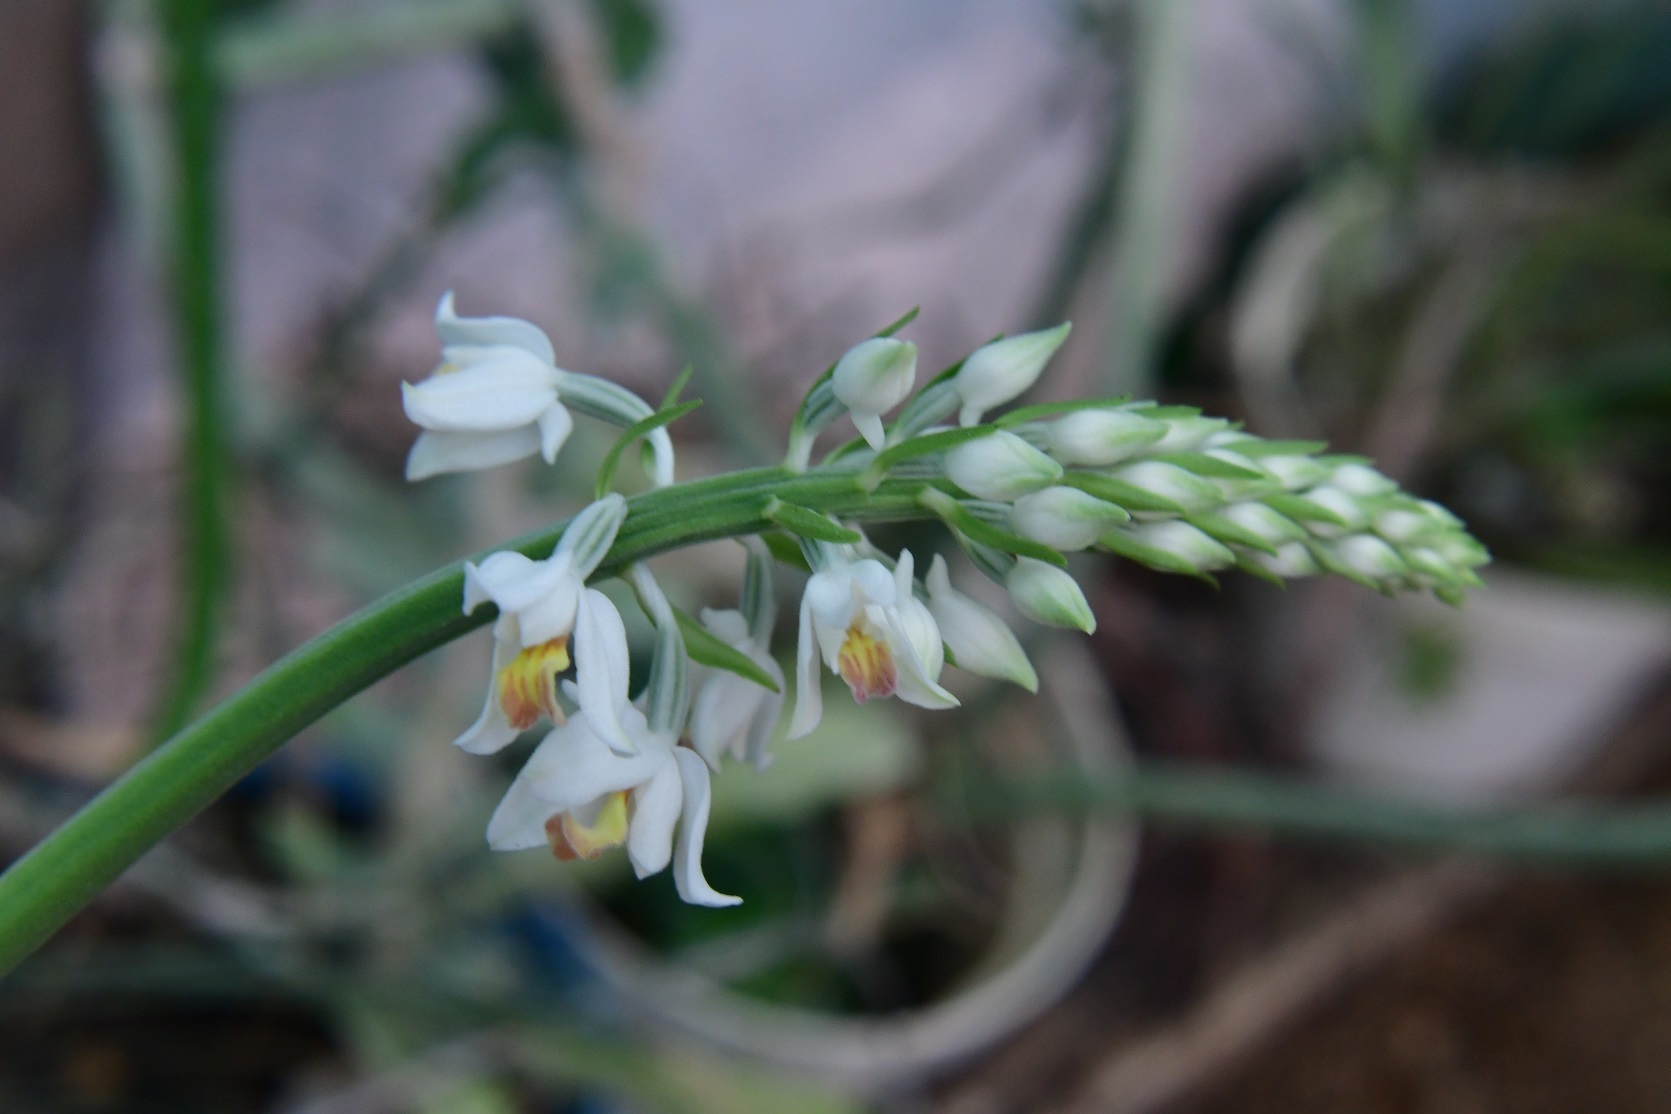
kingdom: Plantae
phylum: Tracheophyta
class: Liliopsida
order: Asparagales
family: Orchidaceae
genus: Calanthe
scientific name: Calanthe calanthoides
